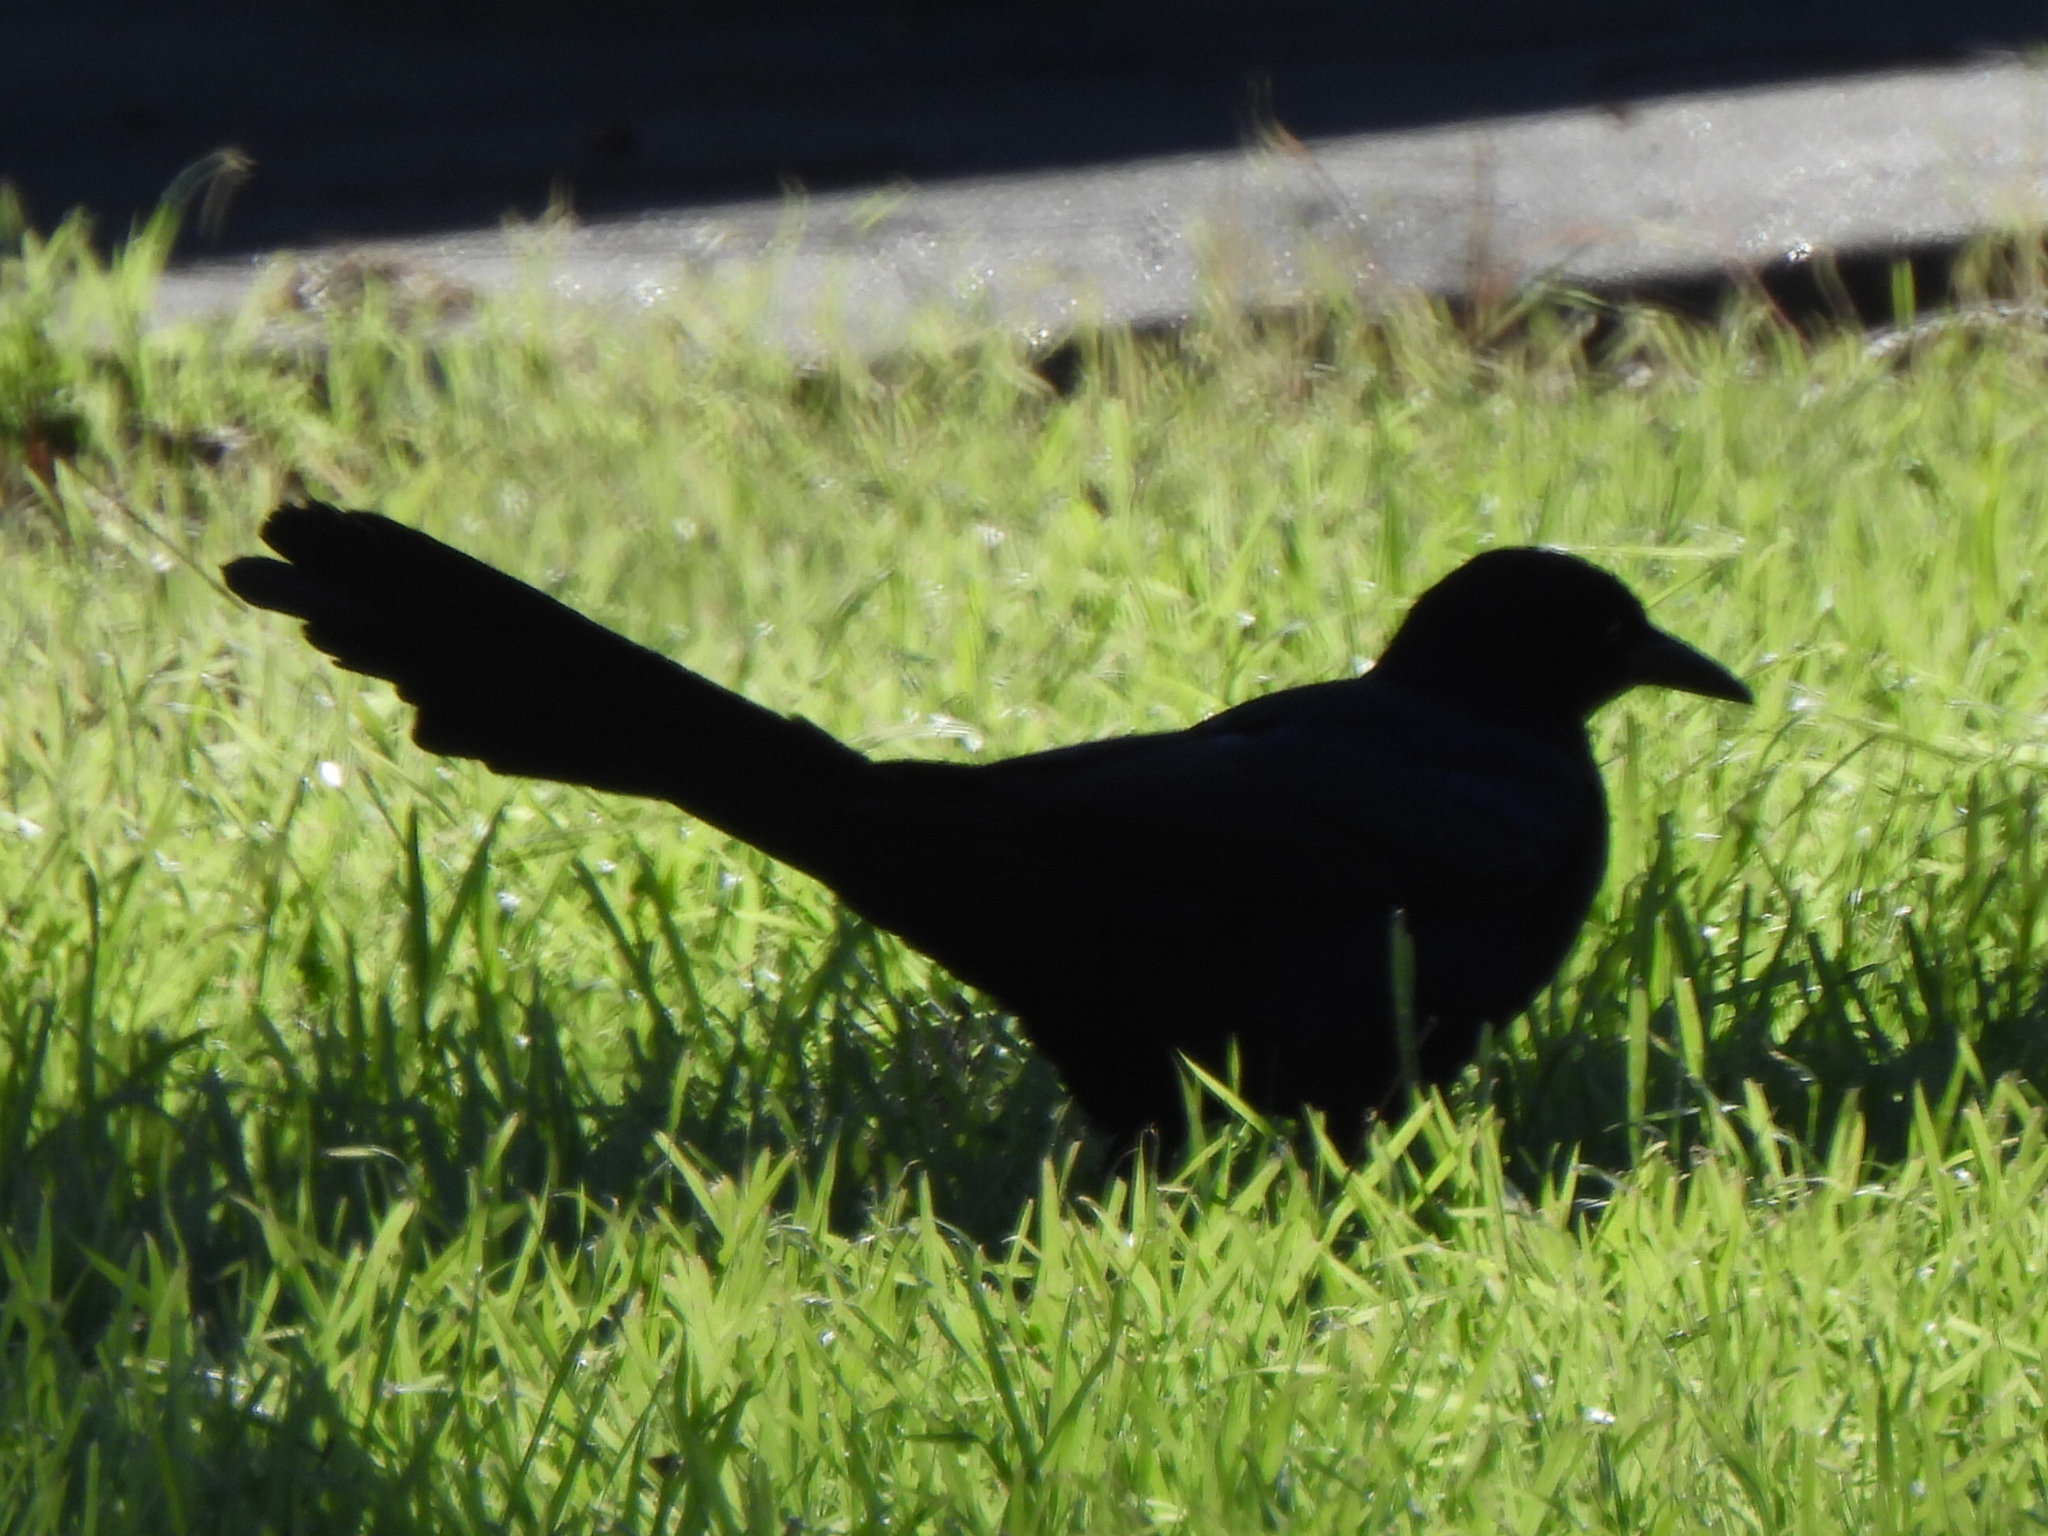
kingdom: Animalia
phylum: Chordata
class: Aves
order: Passeriformes
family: Icteridae
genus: Quiscalus
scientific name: Quiscalus mexicanus
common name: Great-tailed grackle
